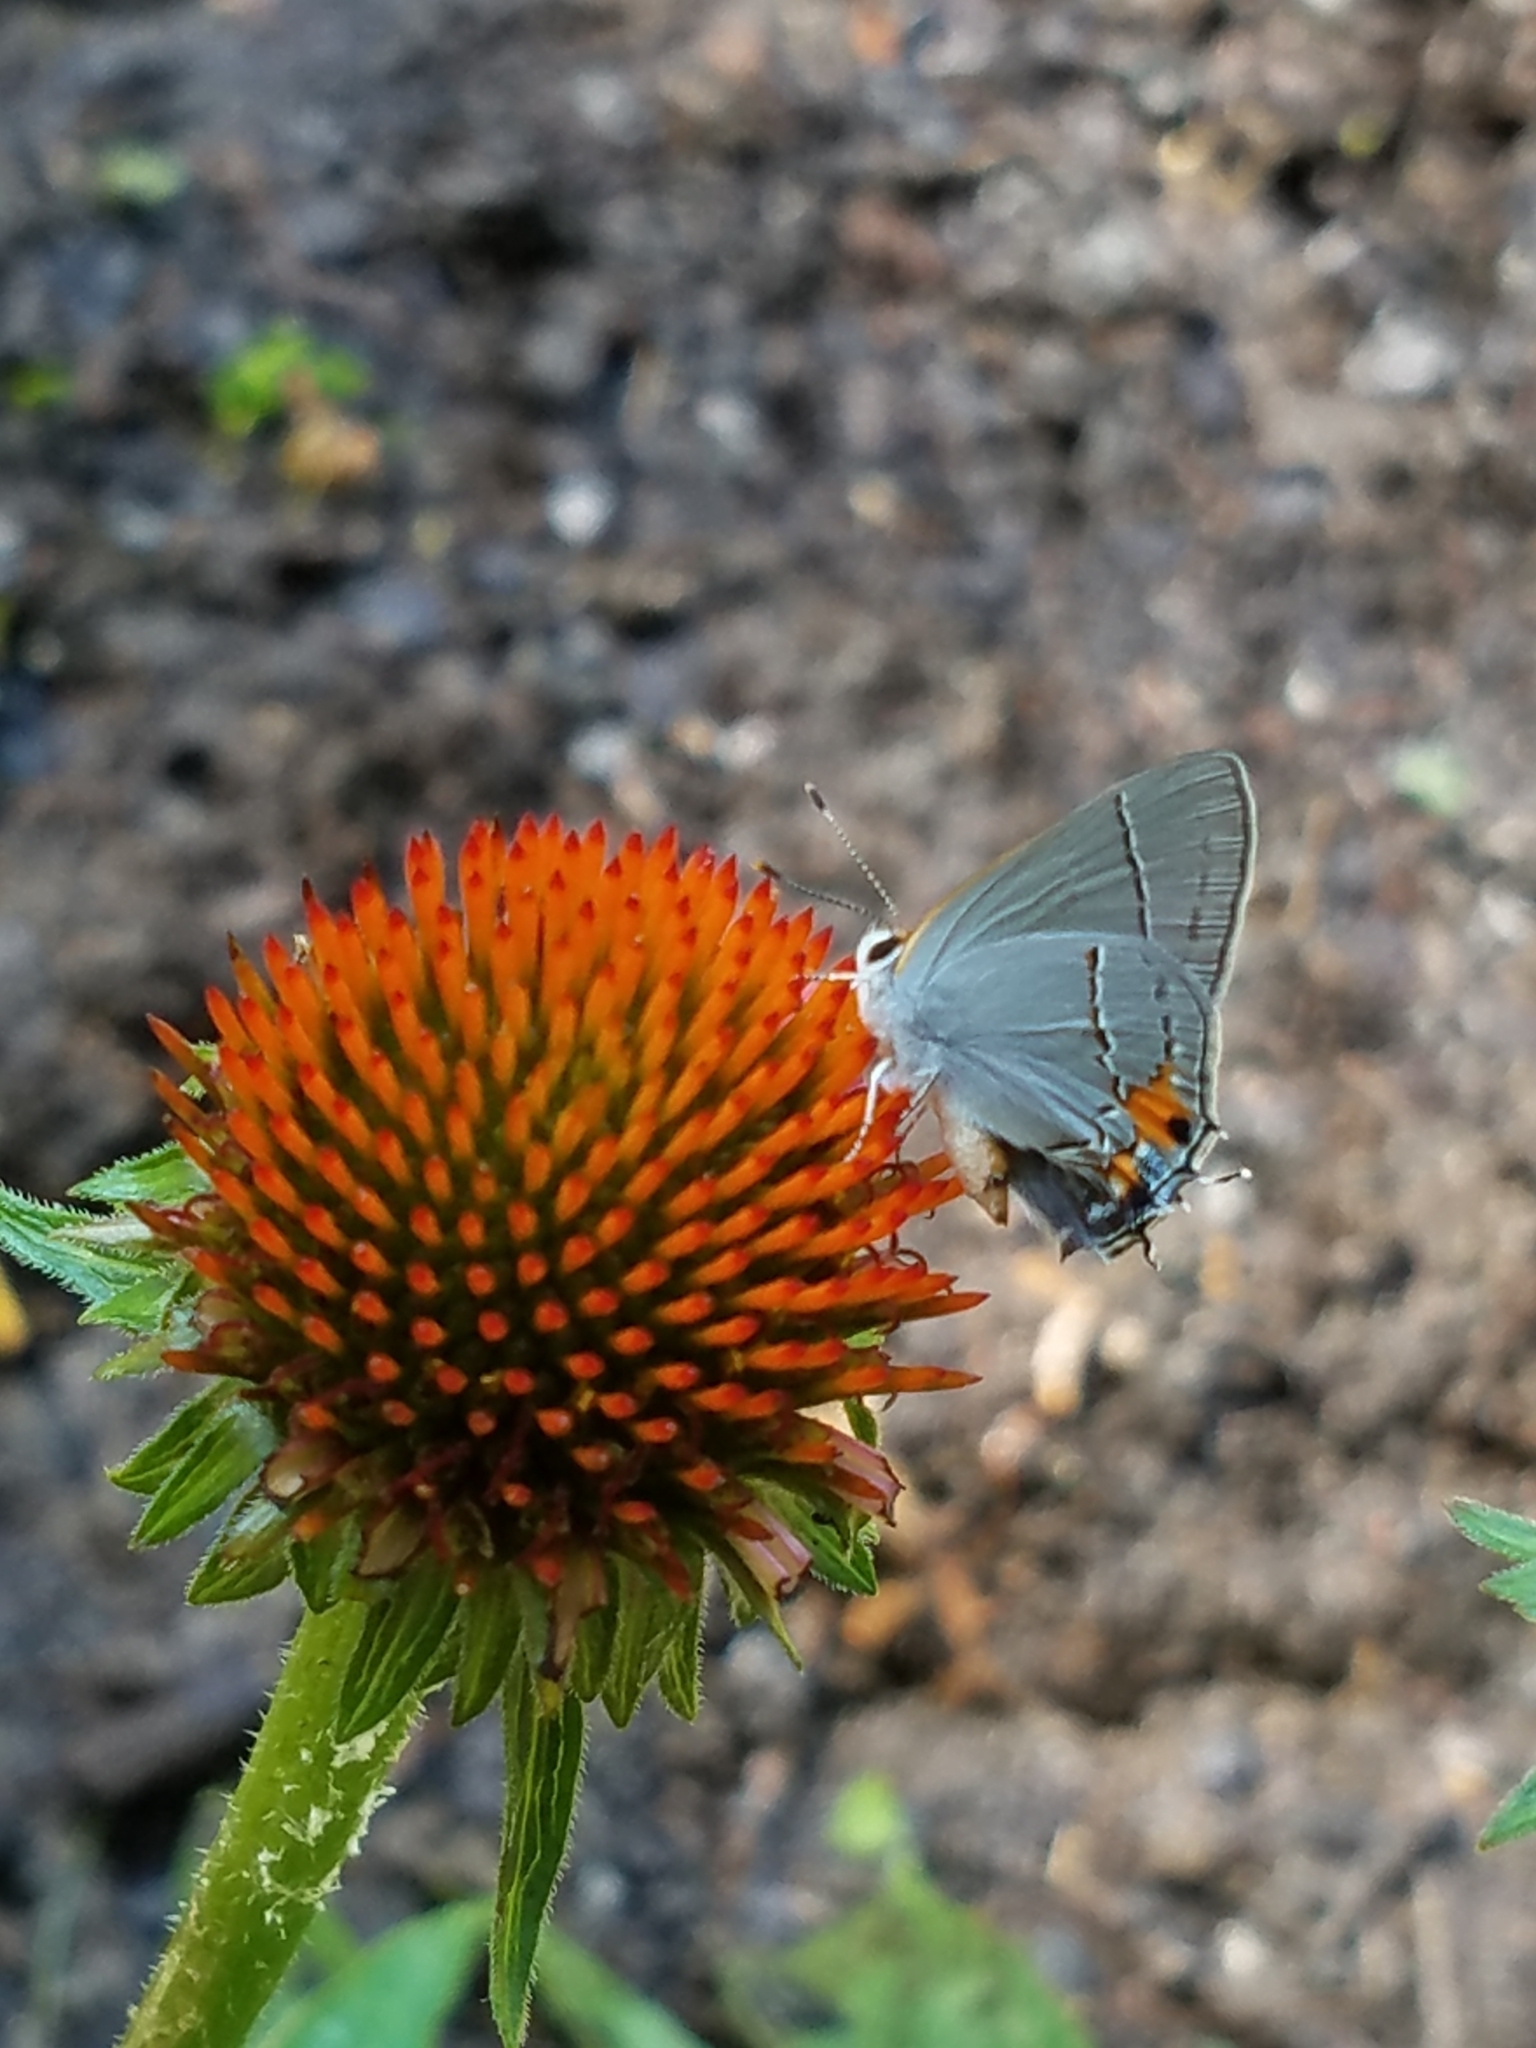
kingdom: Animalia
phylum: Arthropoda
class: Insecta
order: Lepidoptera
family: Lycaenidae
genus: Strymon
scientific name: Strymon melinus
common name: Gray hairstreak
